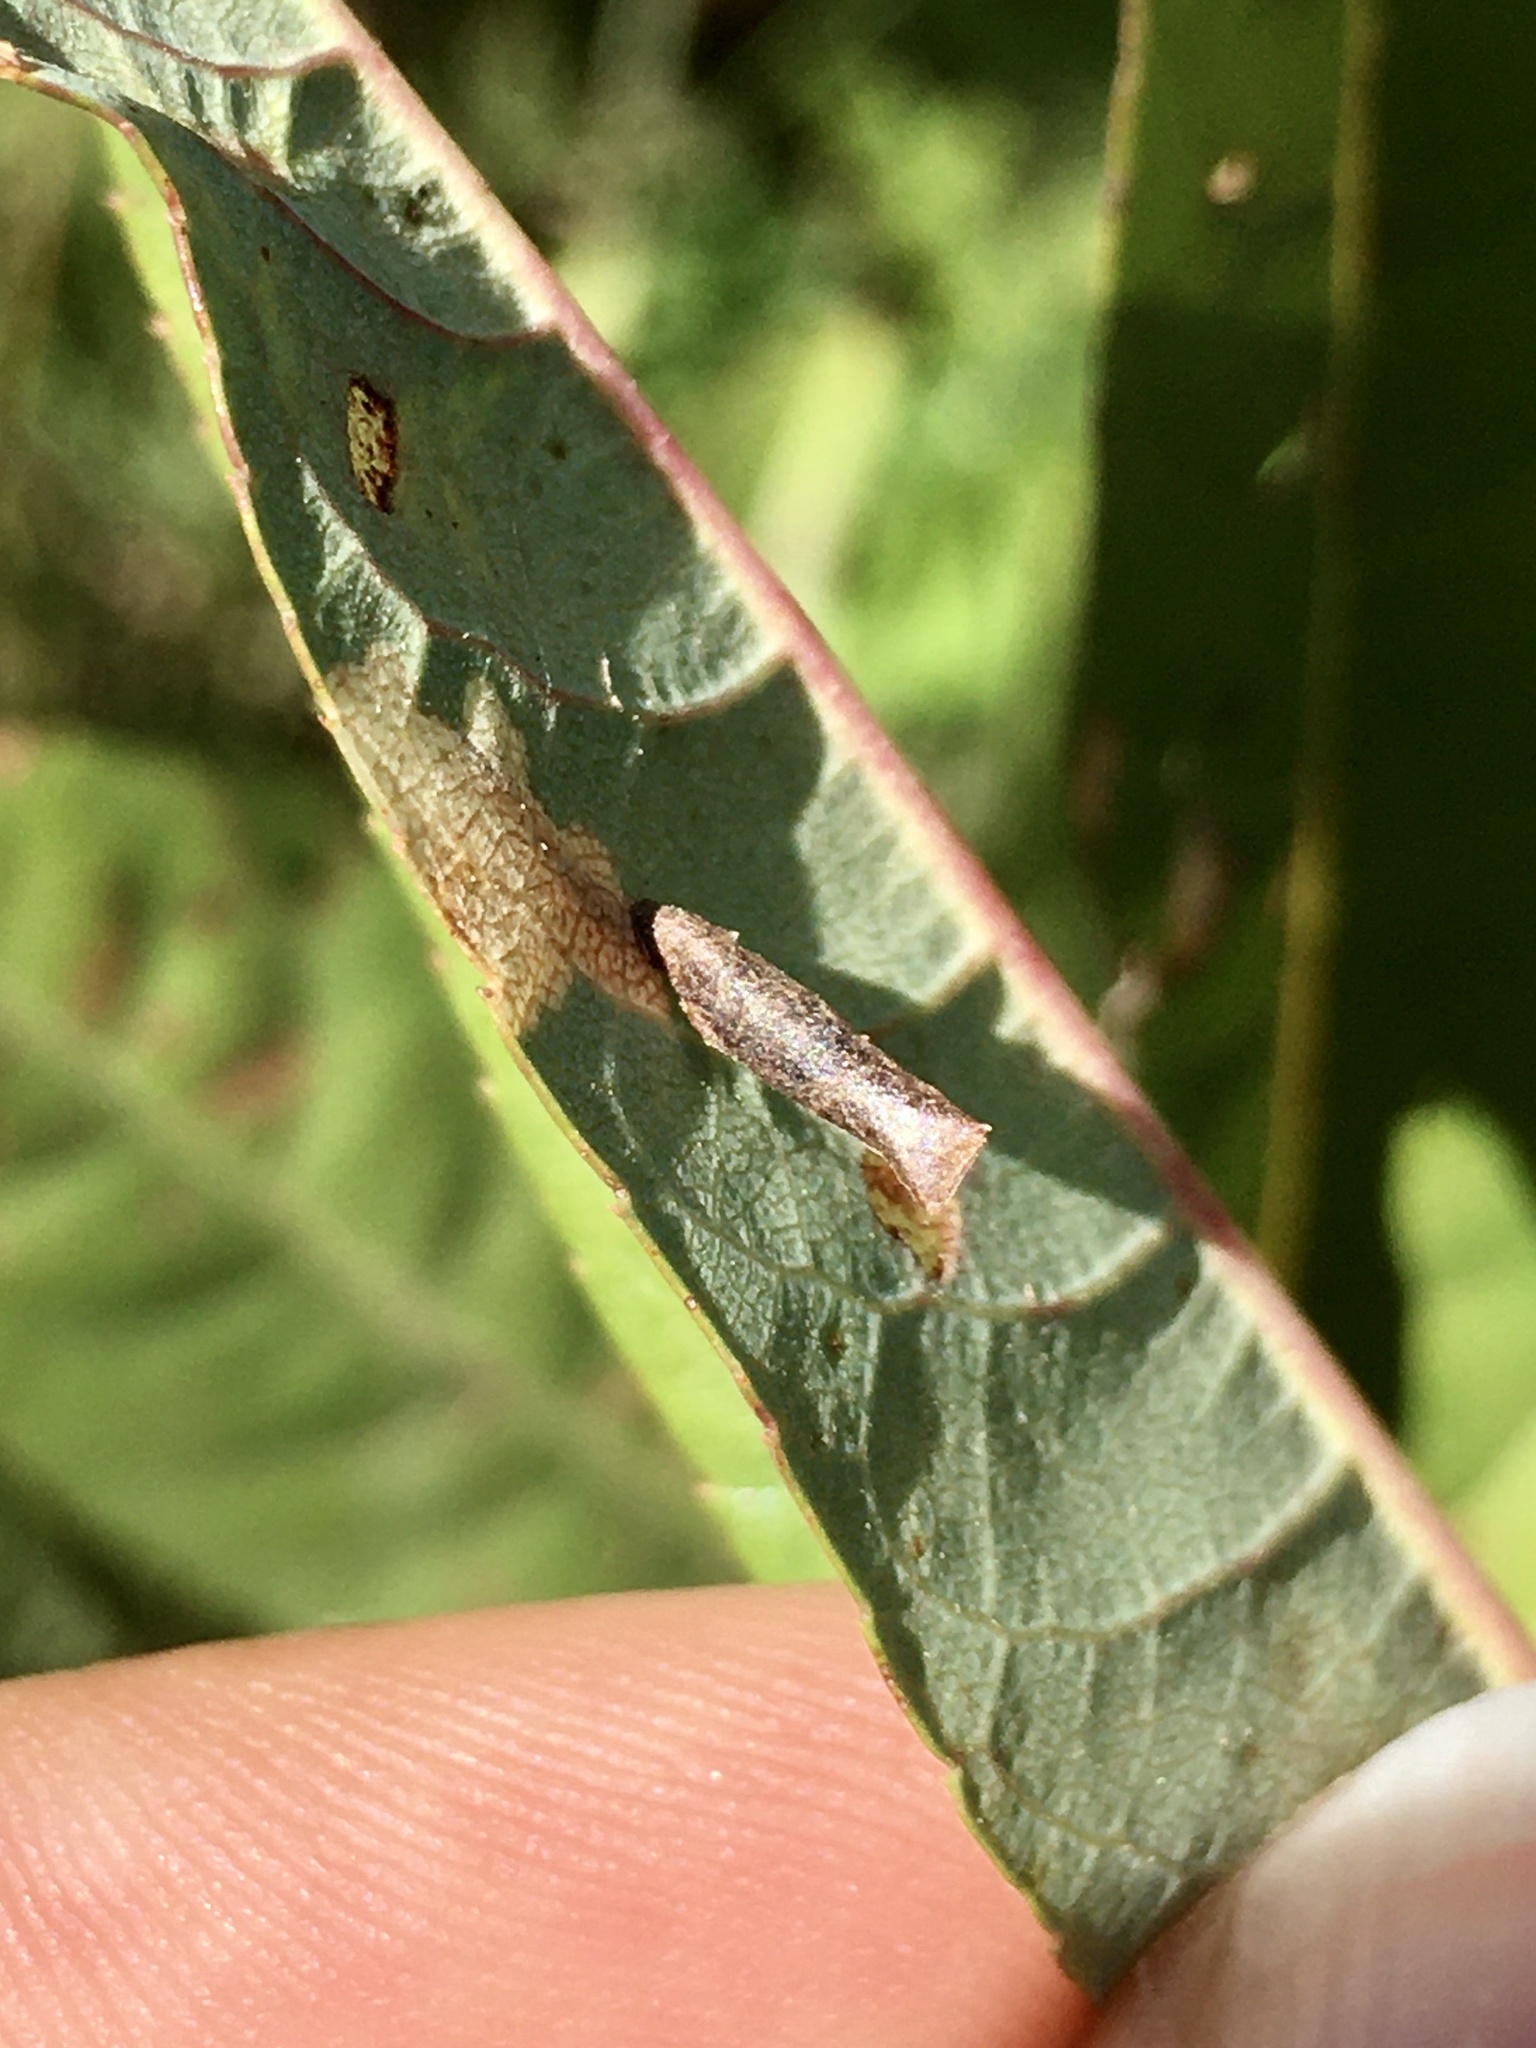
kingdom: Animalia
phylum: Arthropoda
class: Insecta
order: Lepidoptera
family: Coleophoridae
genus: Coleophora
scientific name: Coleophora umbratica
